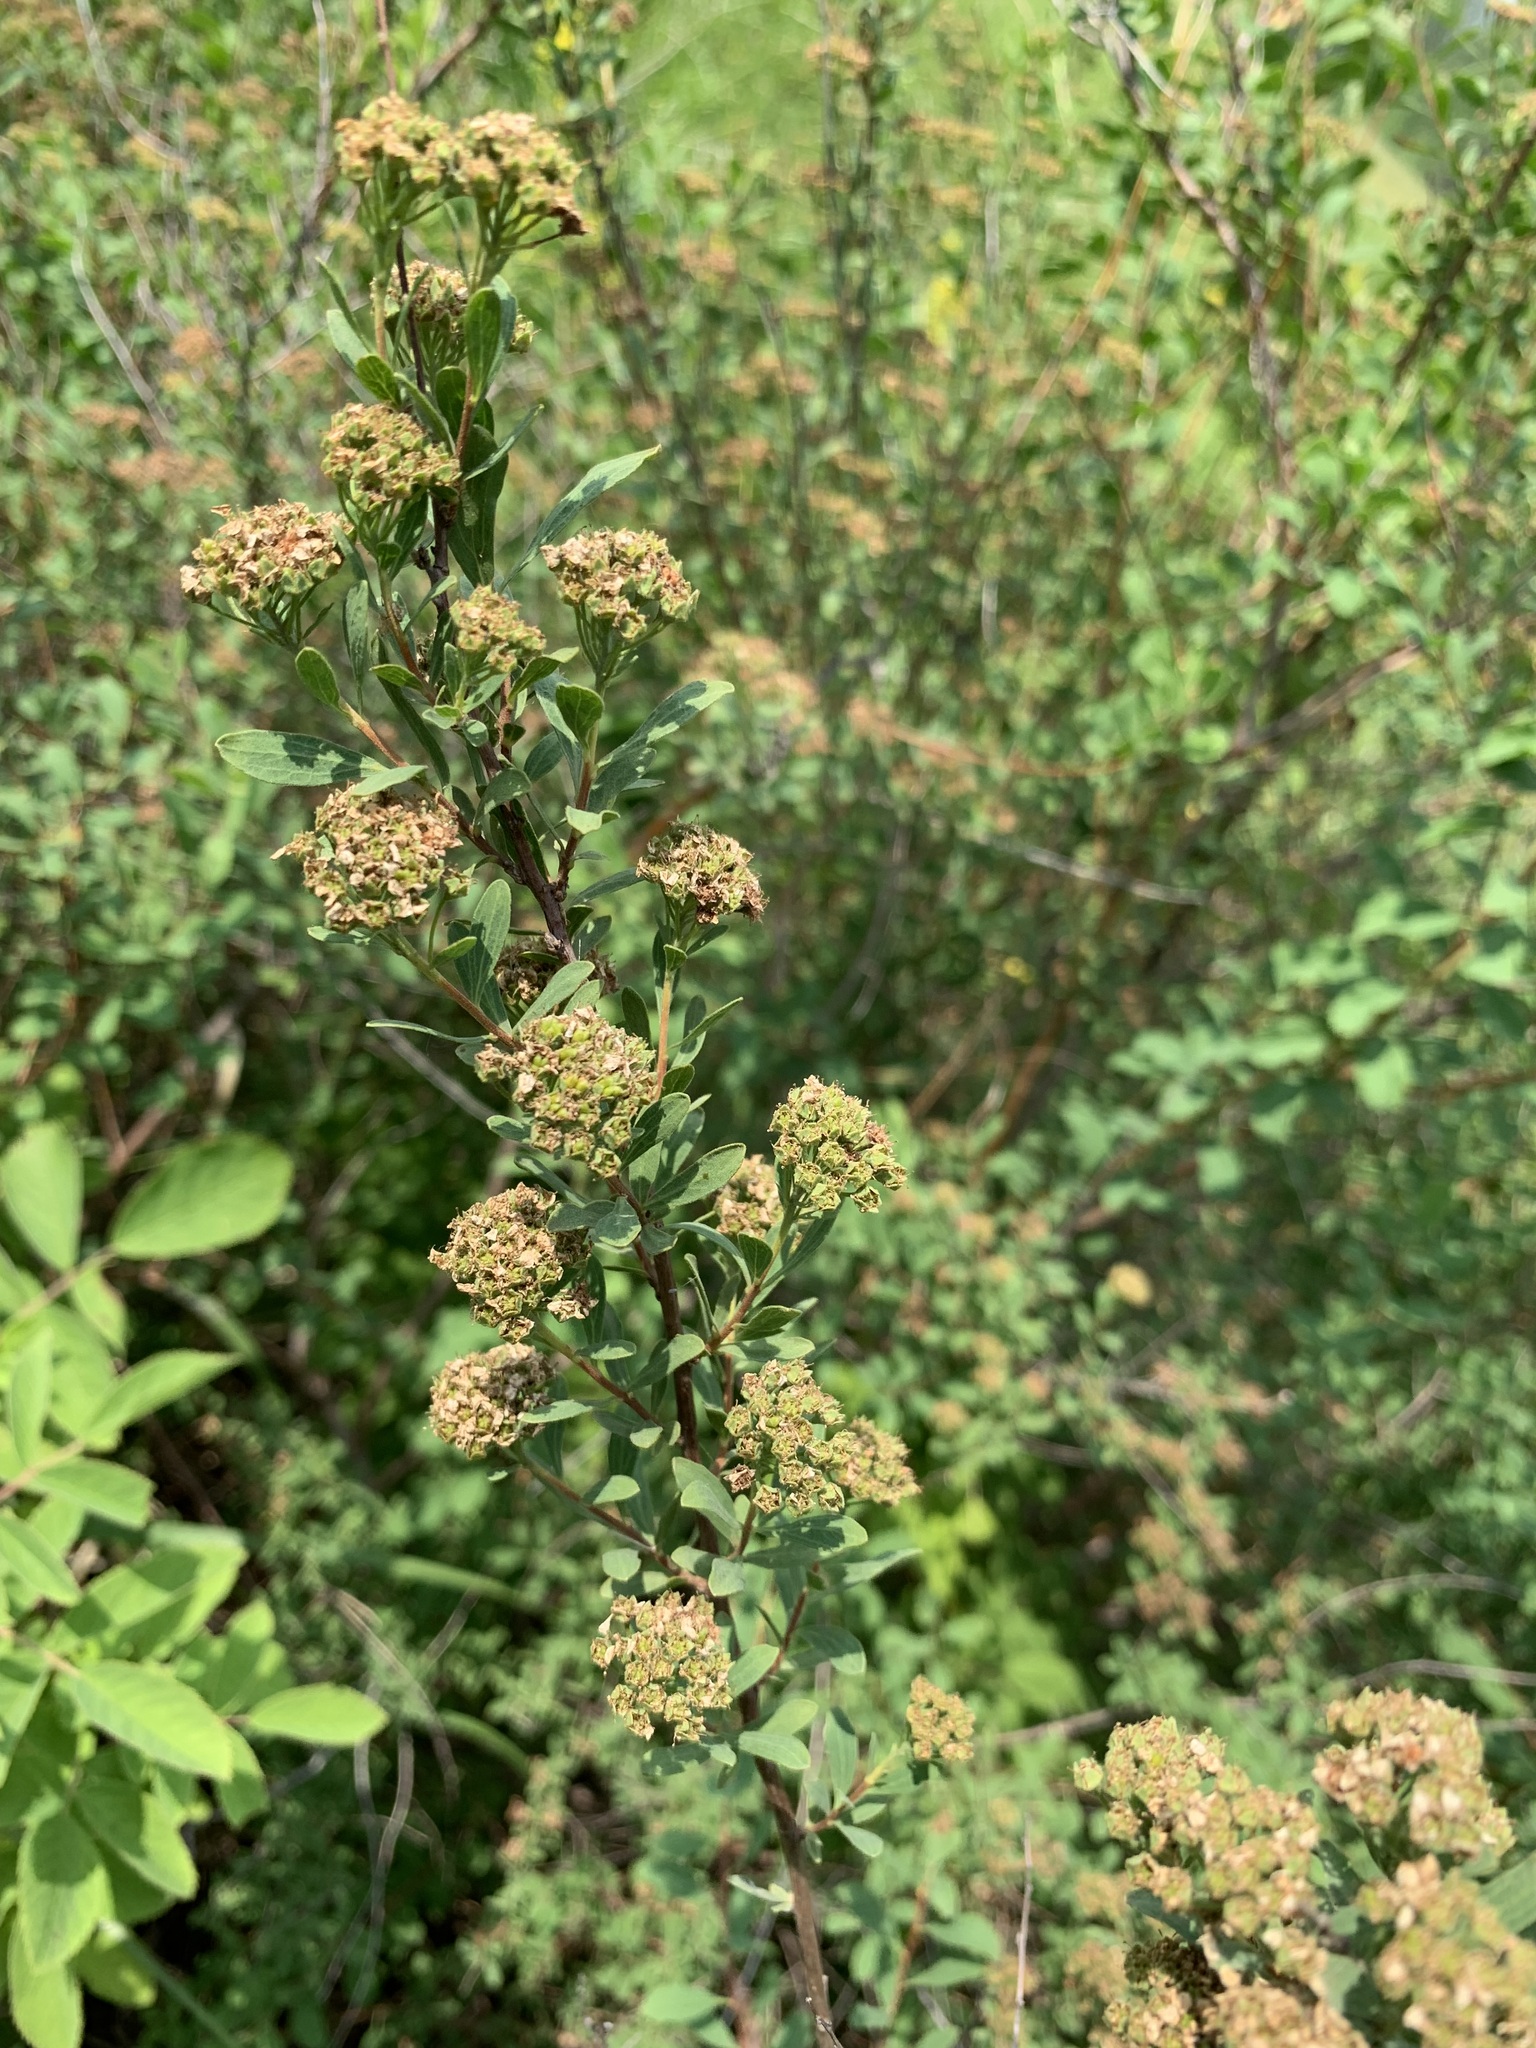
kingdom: Plantae
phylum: Tracheophyta
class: Magnoliopsida
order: Rosales
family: Rosaceae
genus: Spiraea
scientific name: Spiraea crenata
